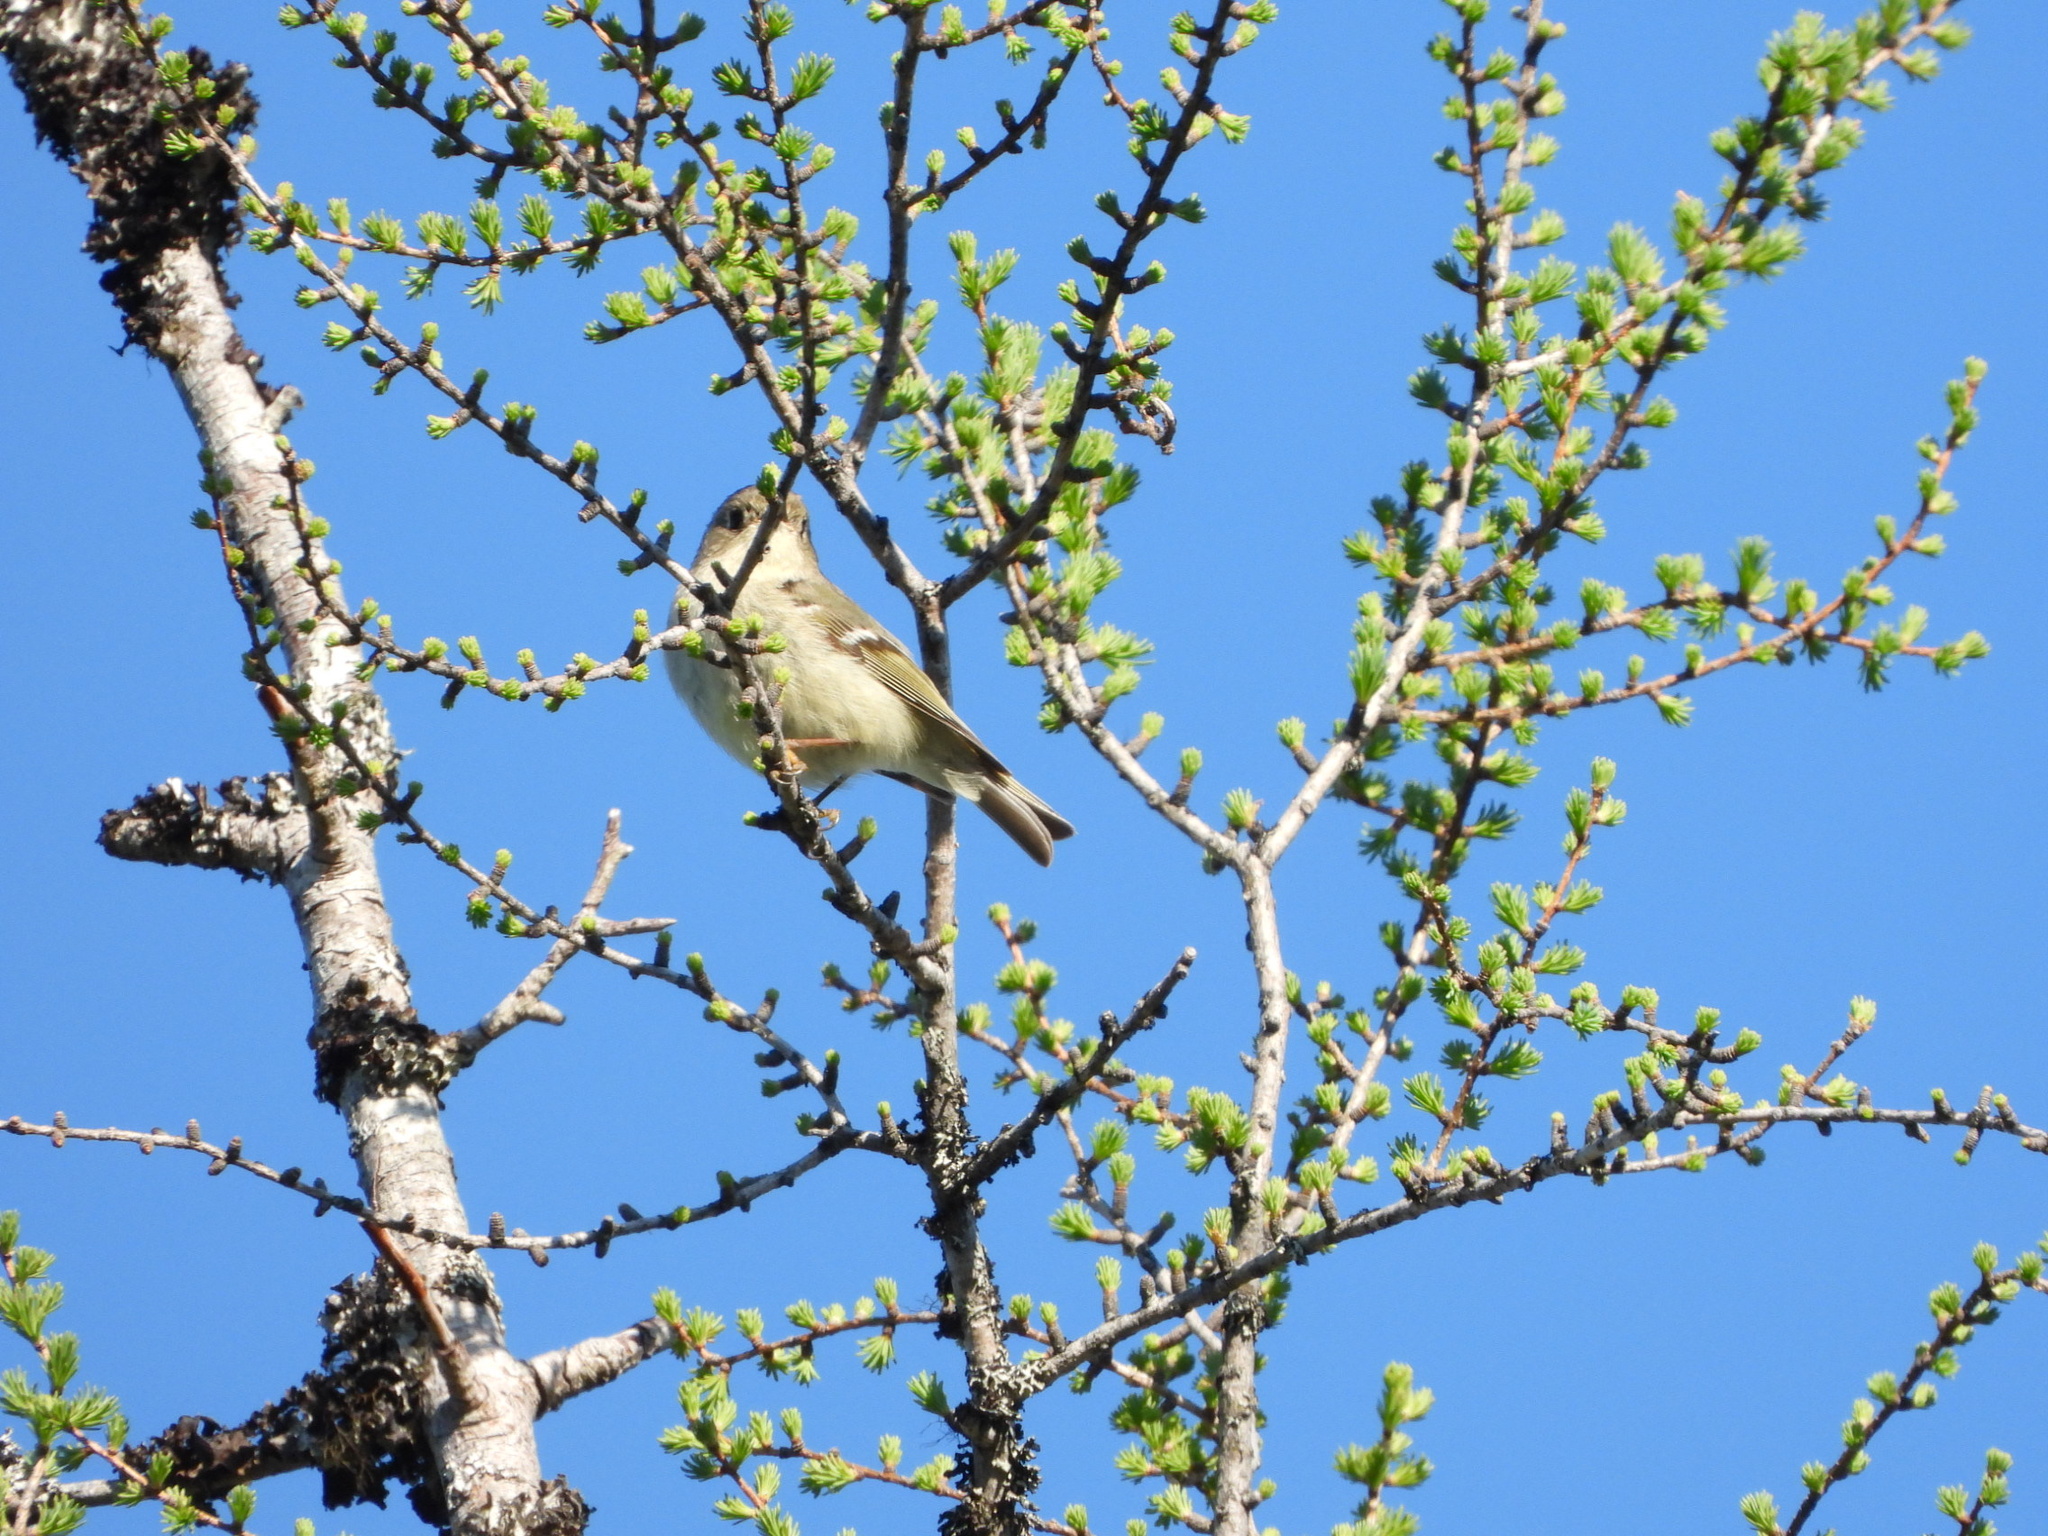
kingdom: Animalia
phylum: Chordata
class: Aves
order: Passeriformes
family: Regulidae
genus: Regulus
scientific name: Regulus calendula
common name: Ruby-crowned kinglet
